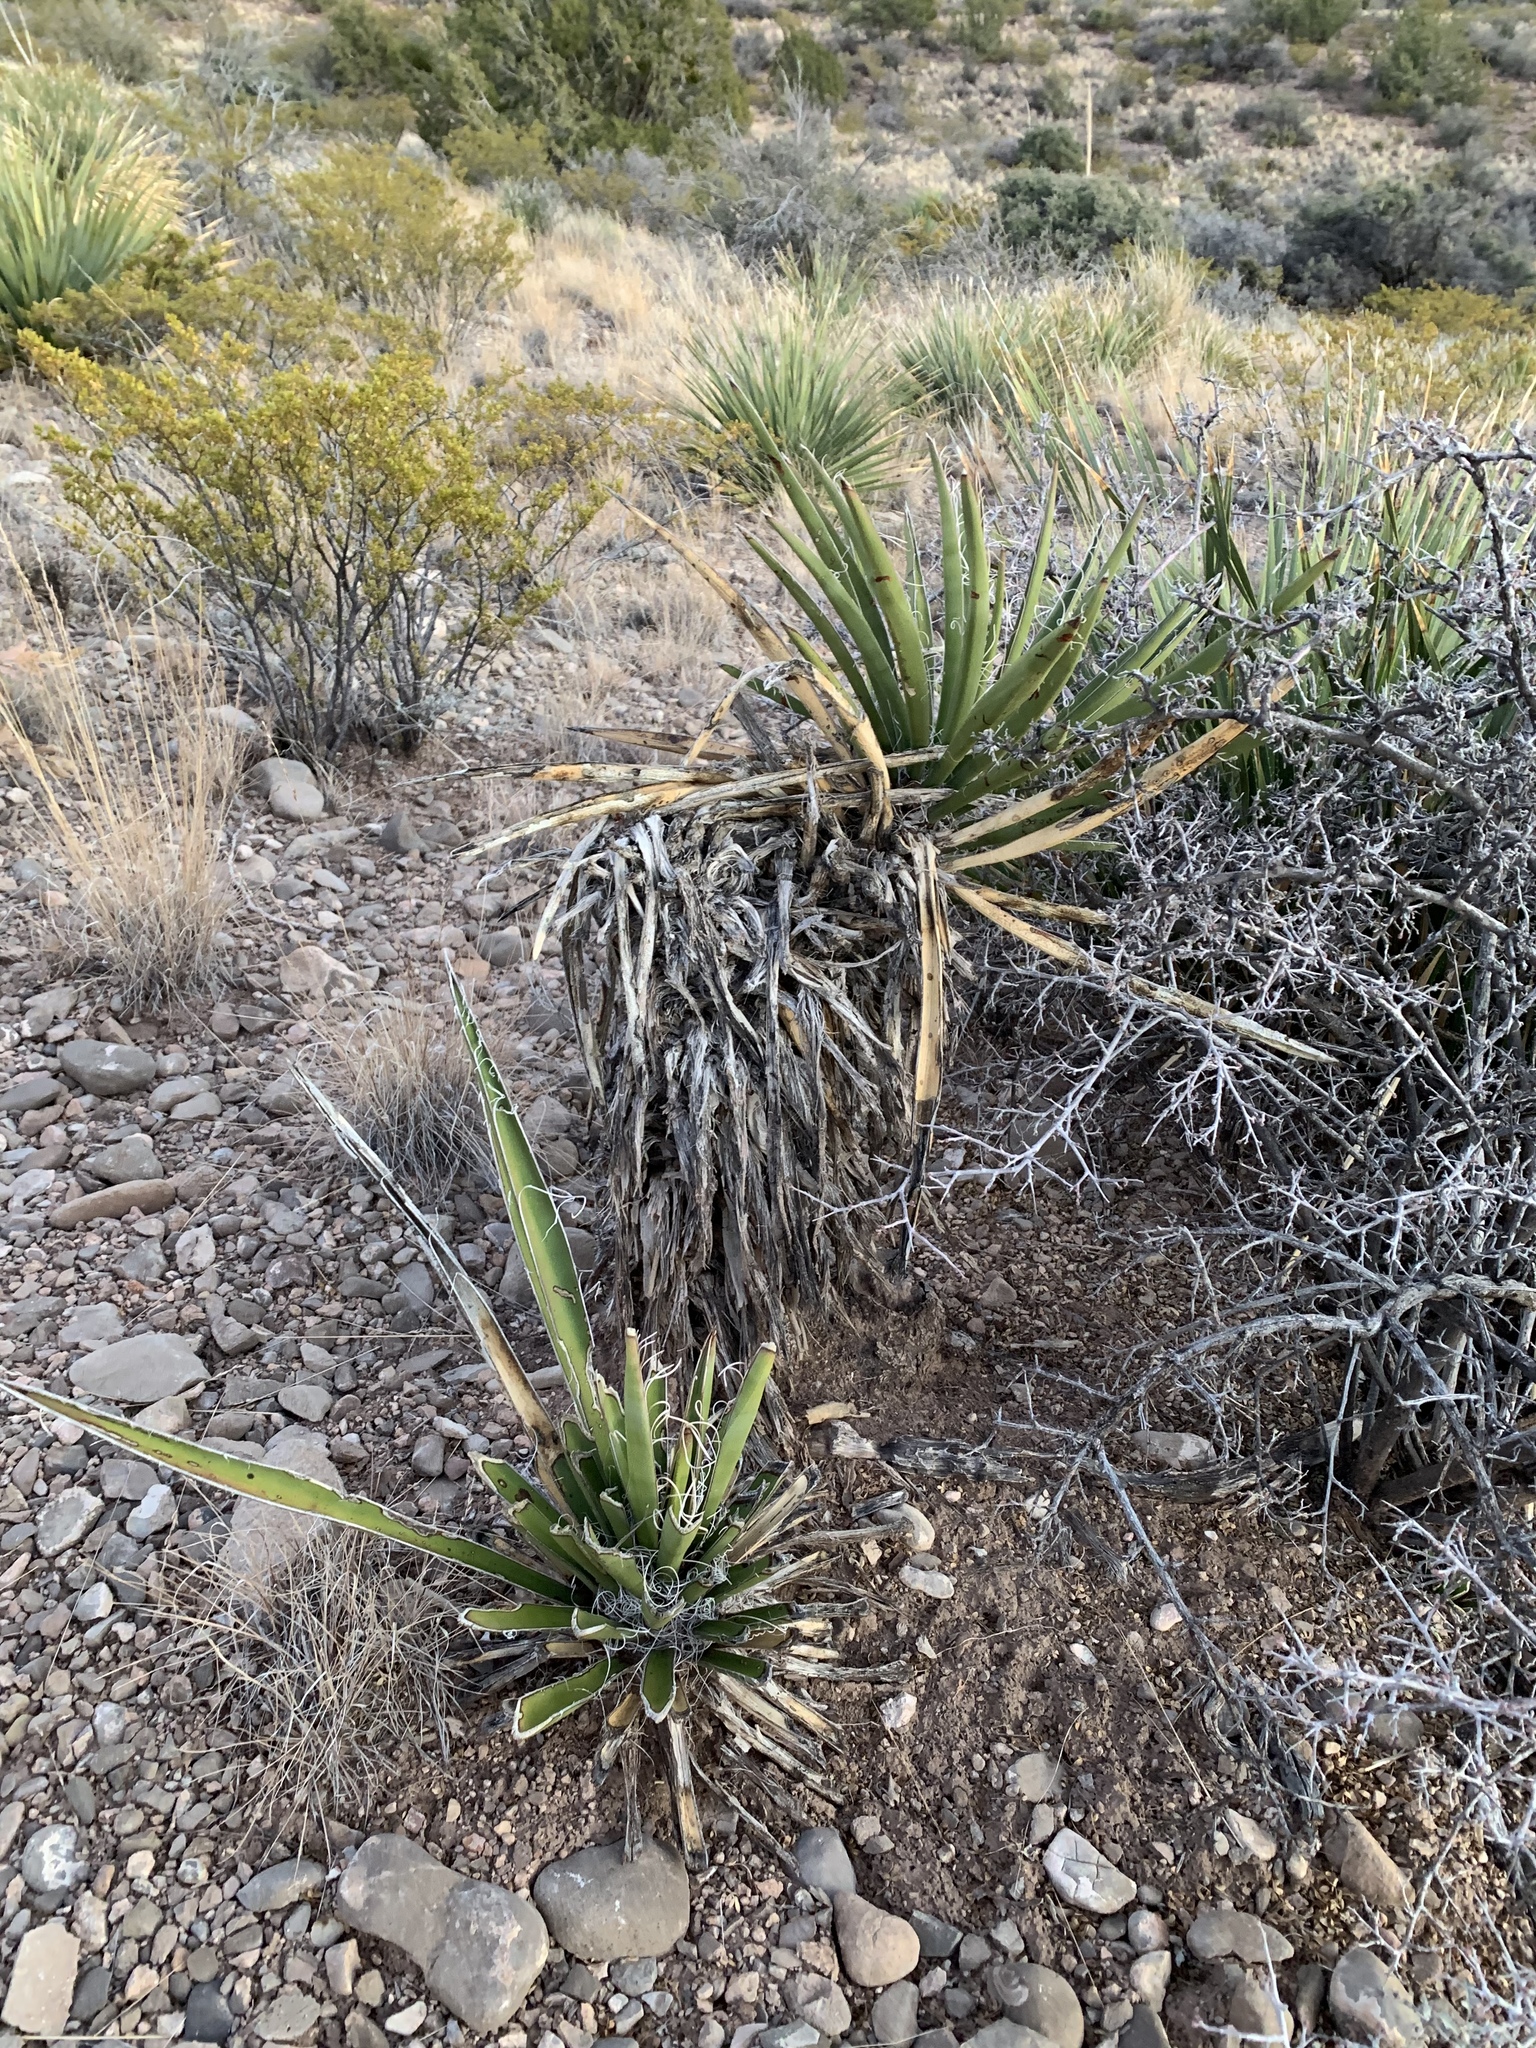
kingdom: Plantae
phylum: Tracheophyta
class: Liliopsida
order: Asparagales
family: Asparagaceae
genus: Yucca
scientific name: Yucca baccata
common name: Banana yucca
